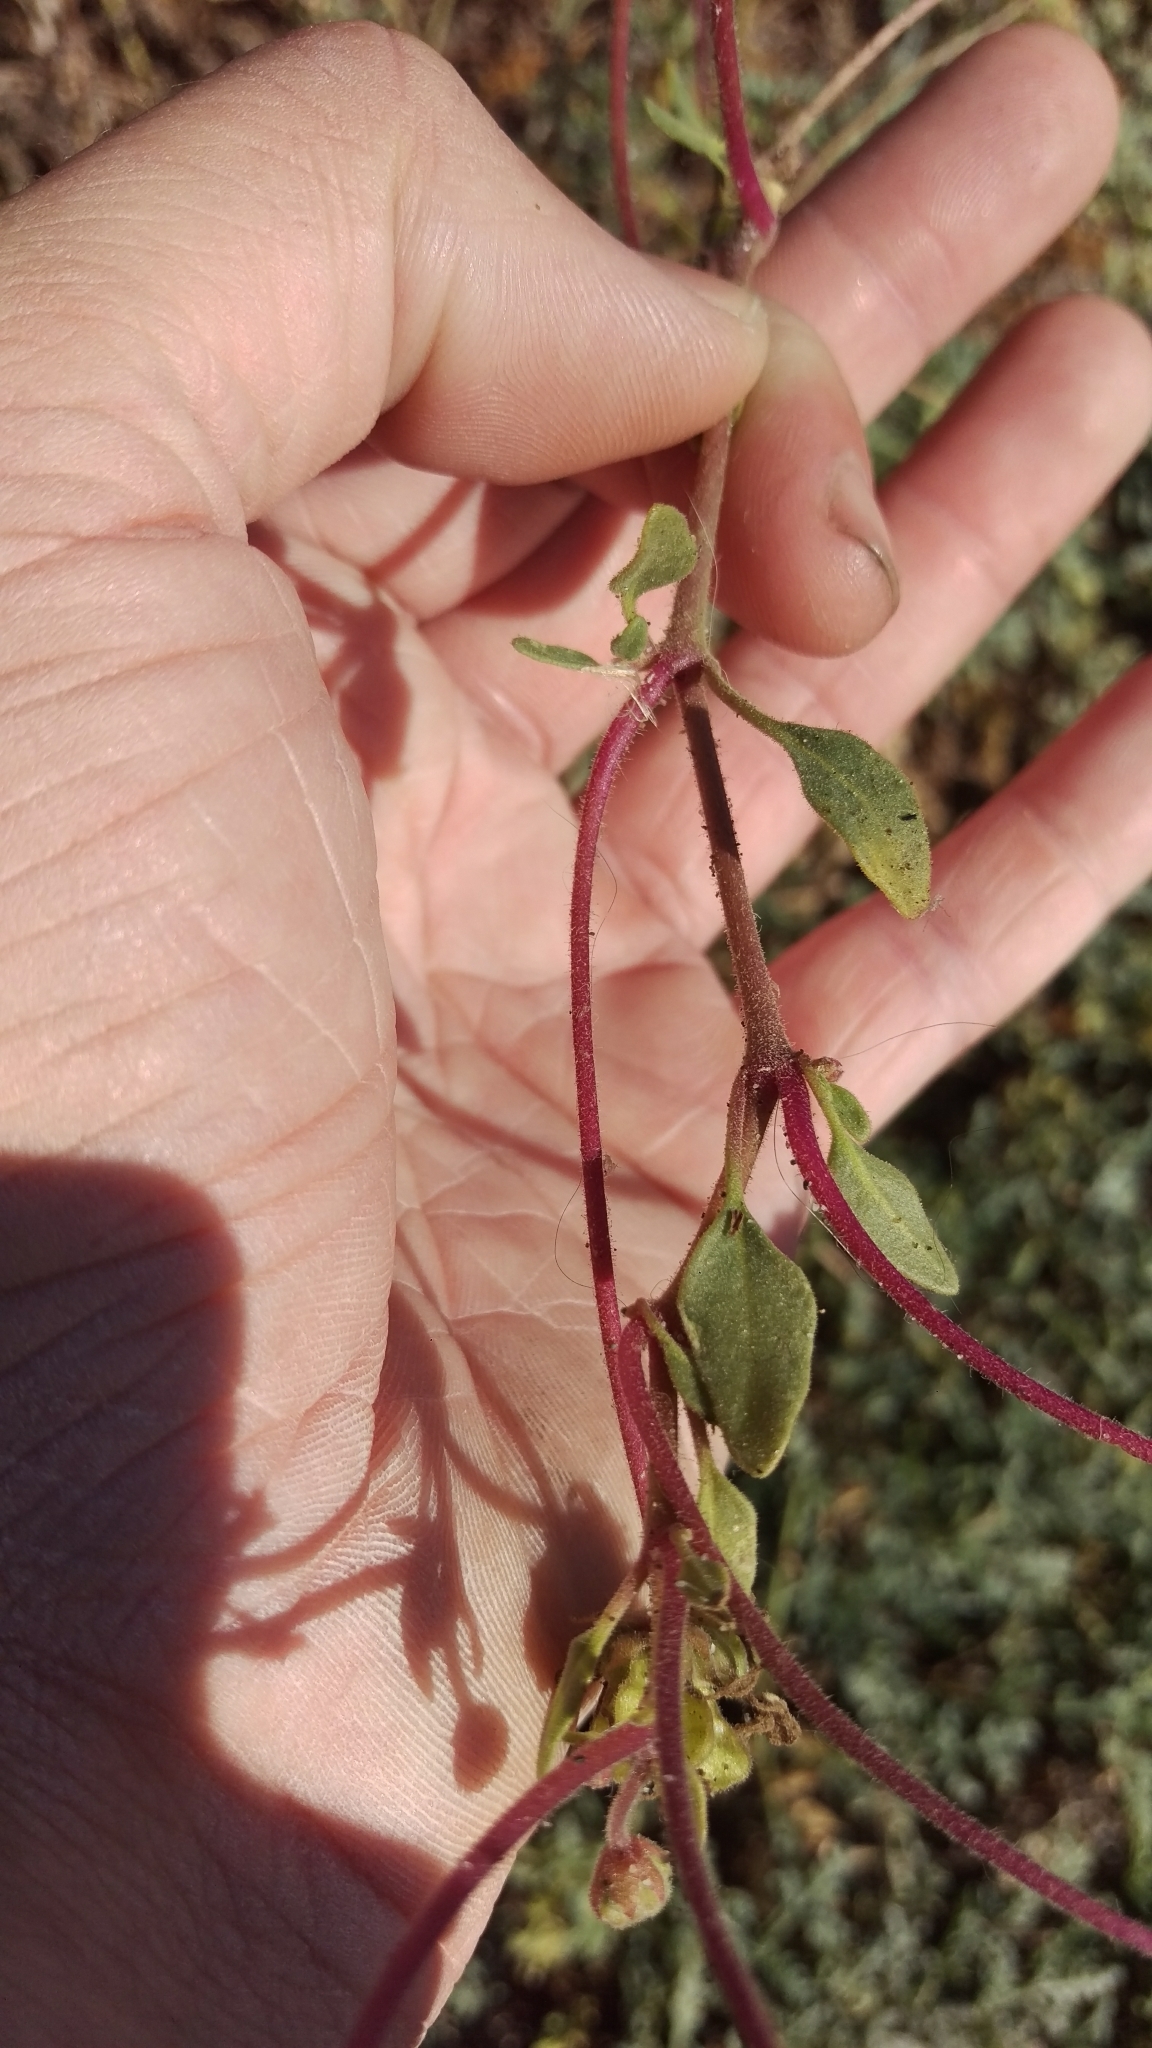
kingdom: Plantae
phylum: Tracheophyta
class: Magnoliopsida
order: Caryophyllales
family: Nyctaginaceae
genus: Abronia
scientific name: Abronia umbellata
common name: Sand-verbena
